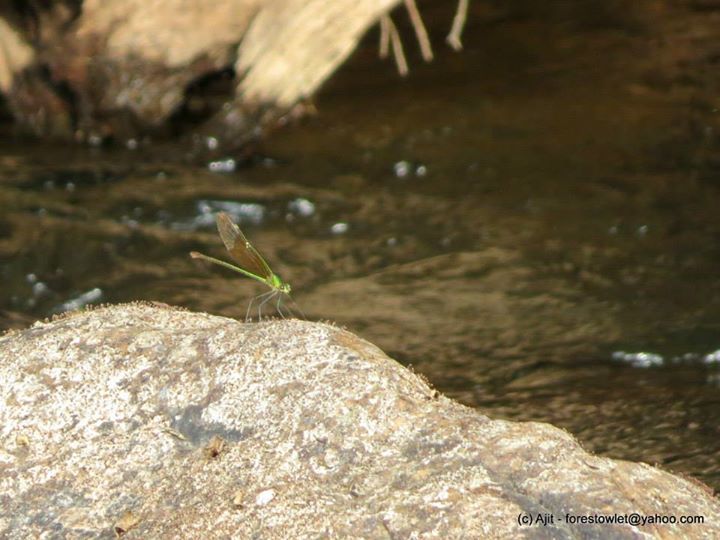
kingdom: Animalia
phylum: Arthropoda
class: Insecta
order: Odonata
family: Calopterygidae
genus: Neurobasis
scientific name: Neurobasis chinensis
